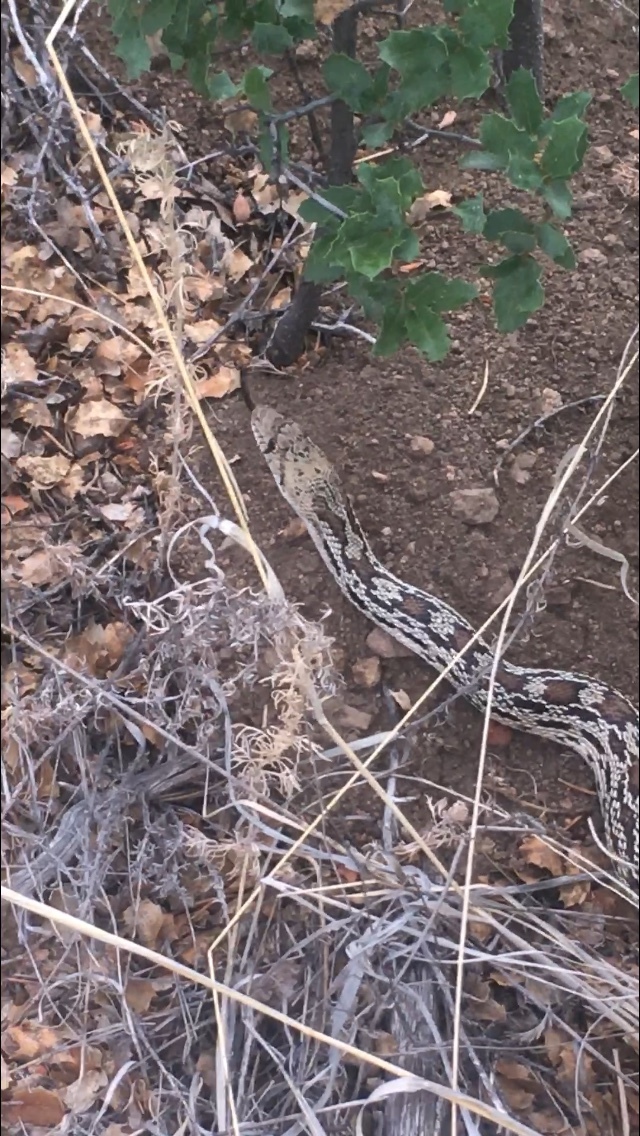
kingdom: Animalia
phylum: Chordata
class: Squamata
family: Colubridae
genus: Pituophis
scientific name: Pituophis catenifer
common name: Gopher snake
